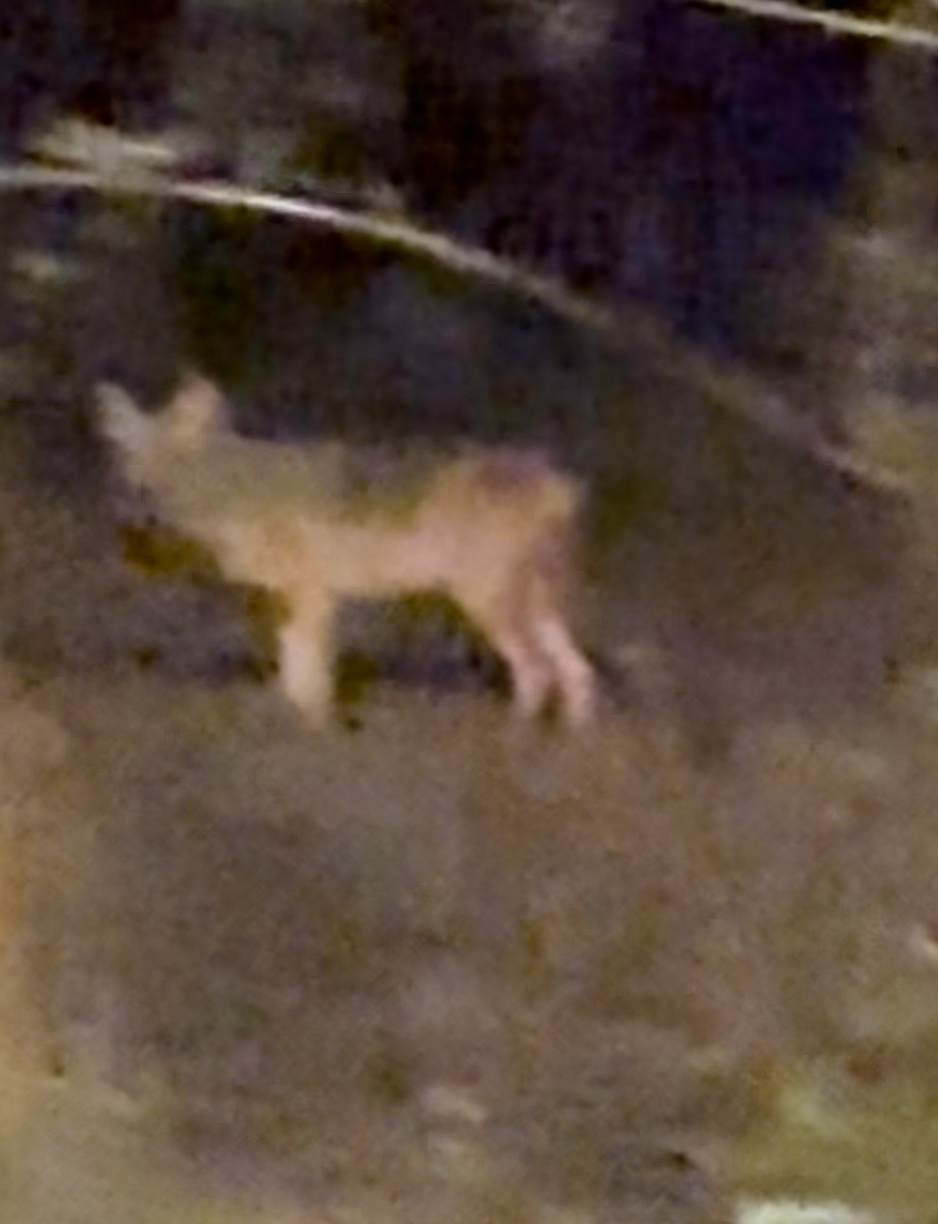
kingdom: Animalia
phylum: Chordata
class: Mammalia
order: Carnivora
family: Canidae
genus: Canis
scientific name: Canis latrans
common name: Coyote
